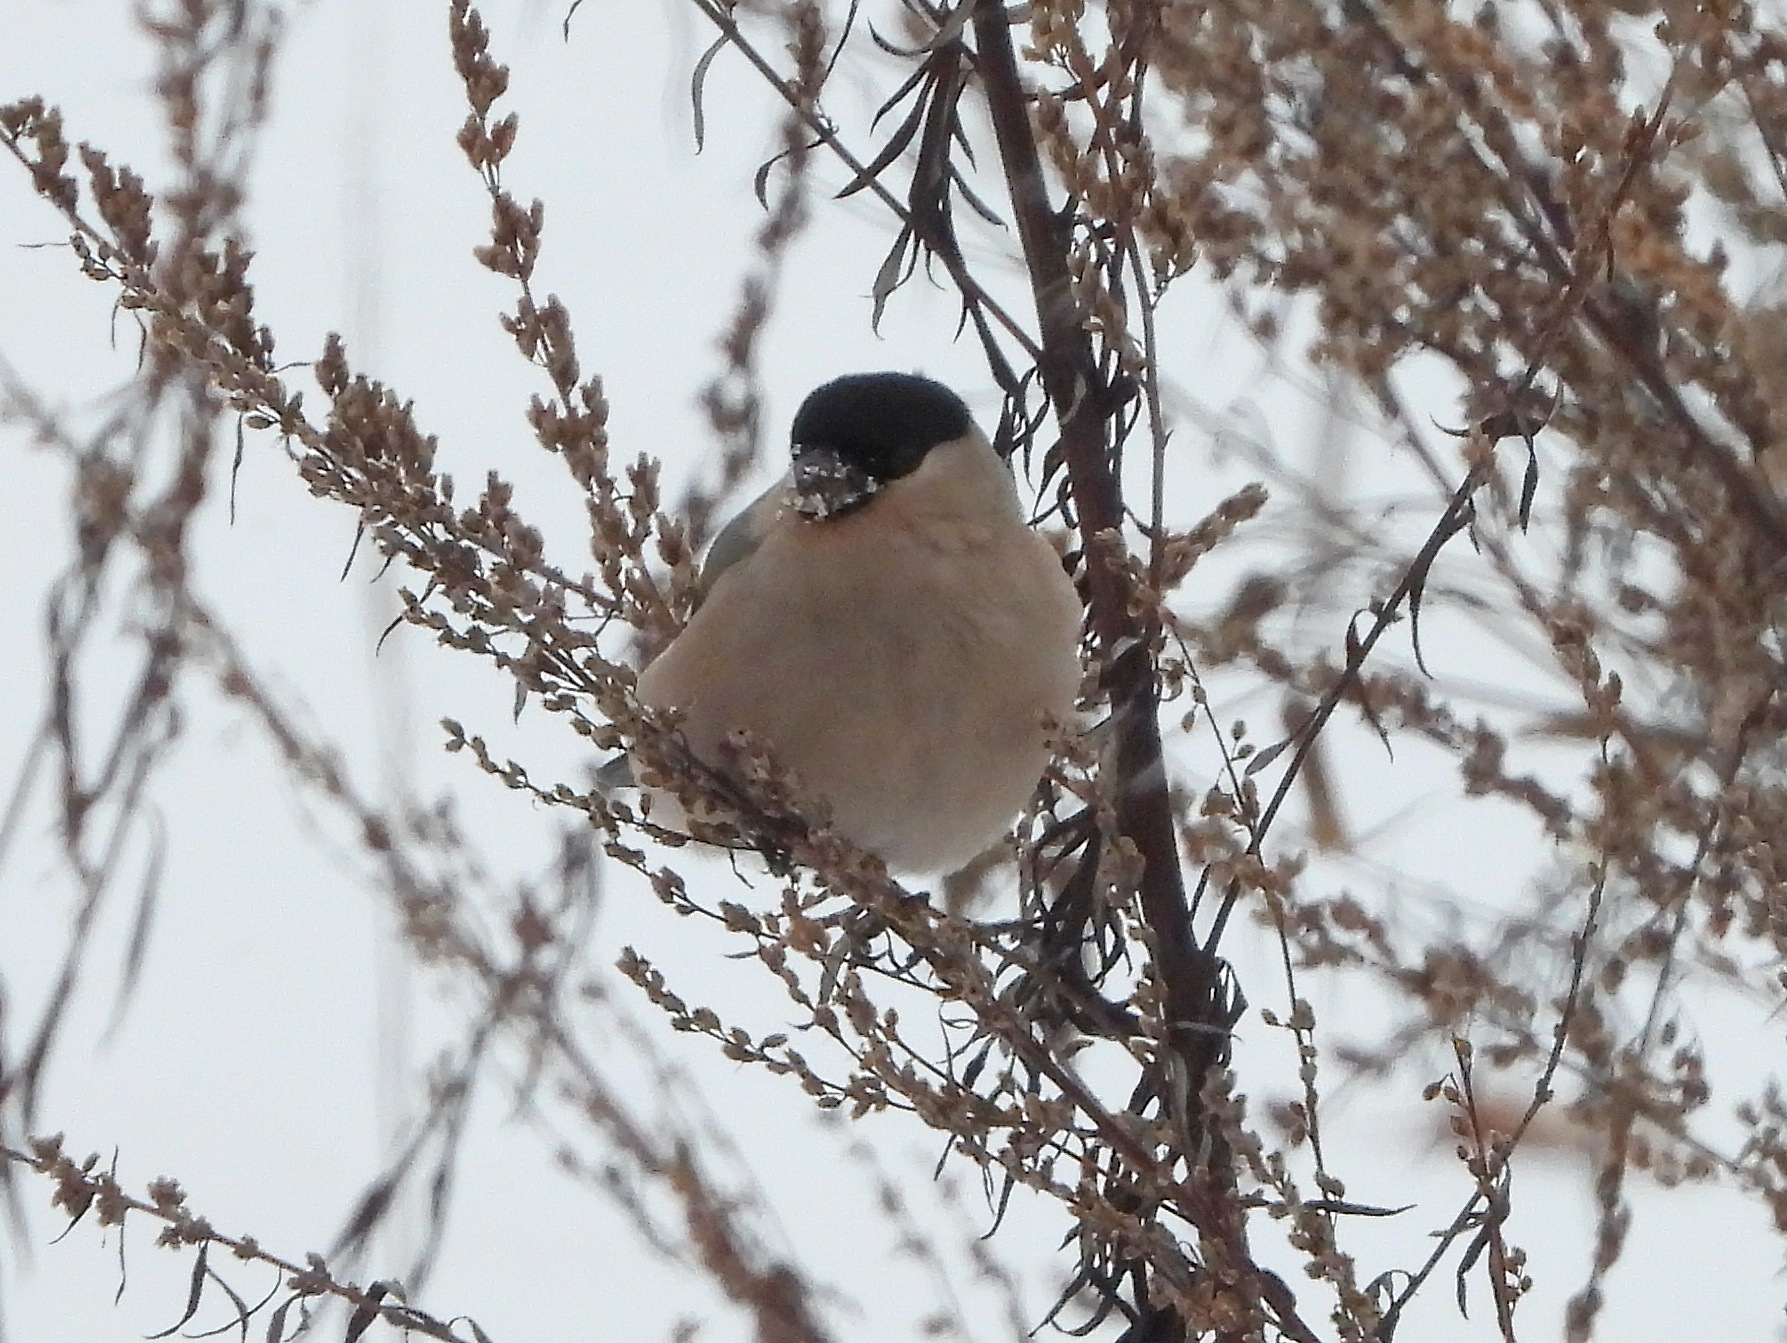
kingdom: Animalia
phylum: Chordata
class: Aves
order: Passeriformes
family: Fringillidae
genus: Pyrrhula
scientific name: Pyrrhula pyrrhula
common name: Eurasian bullfinch
